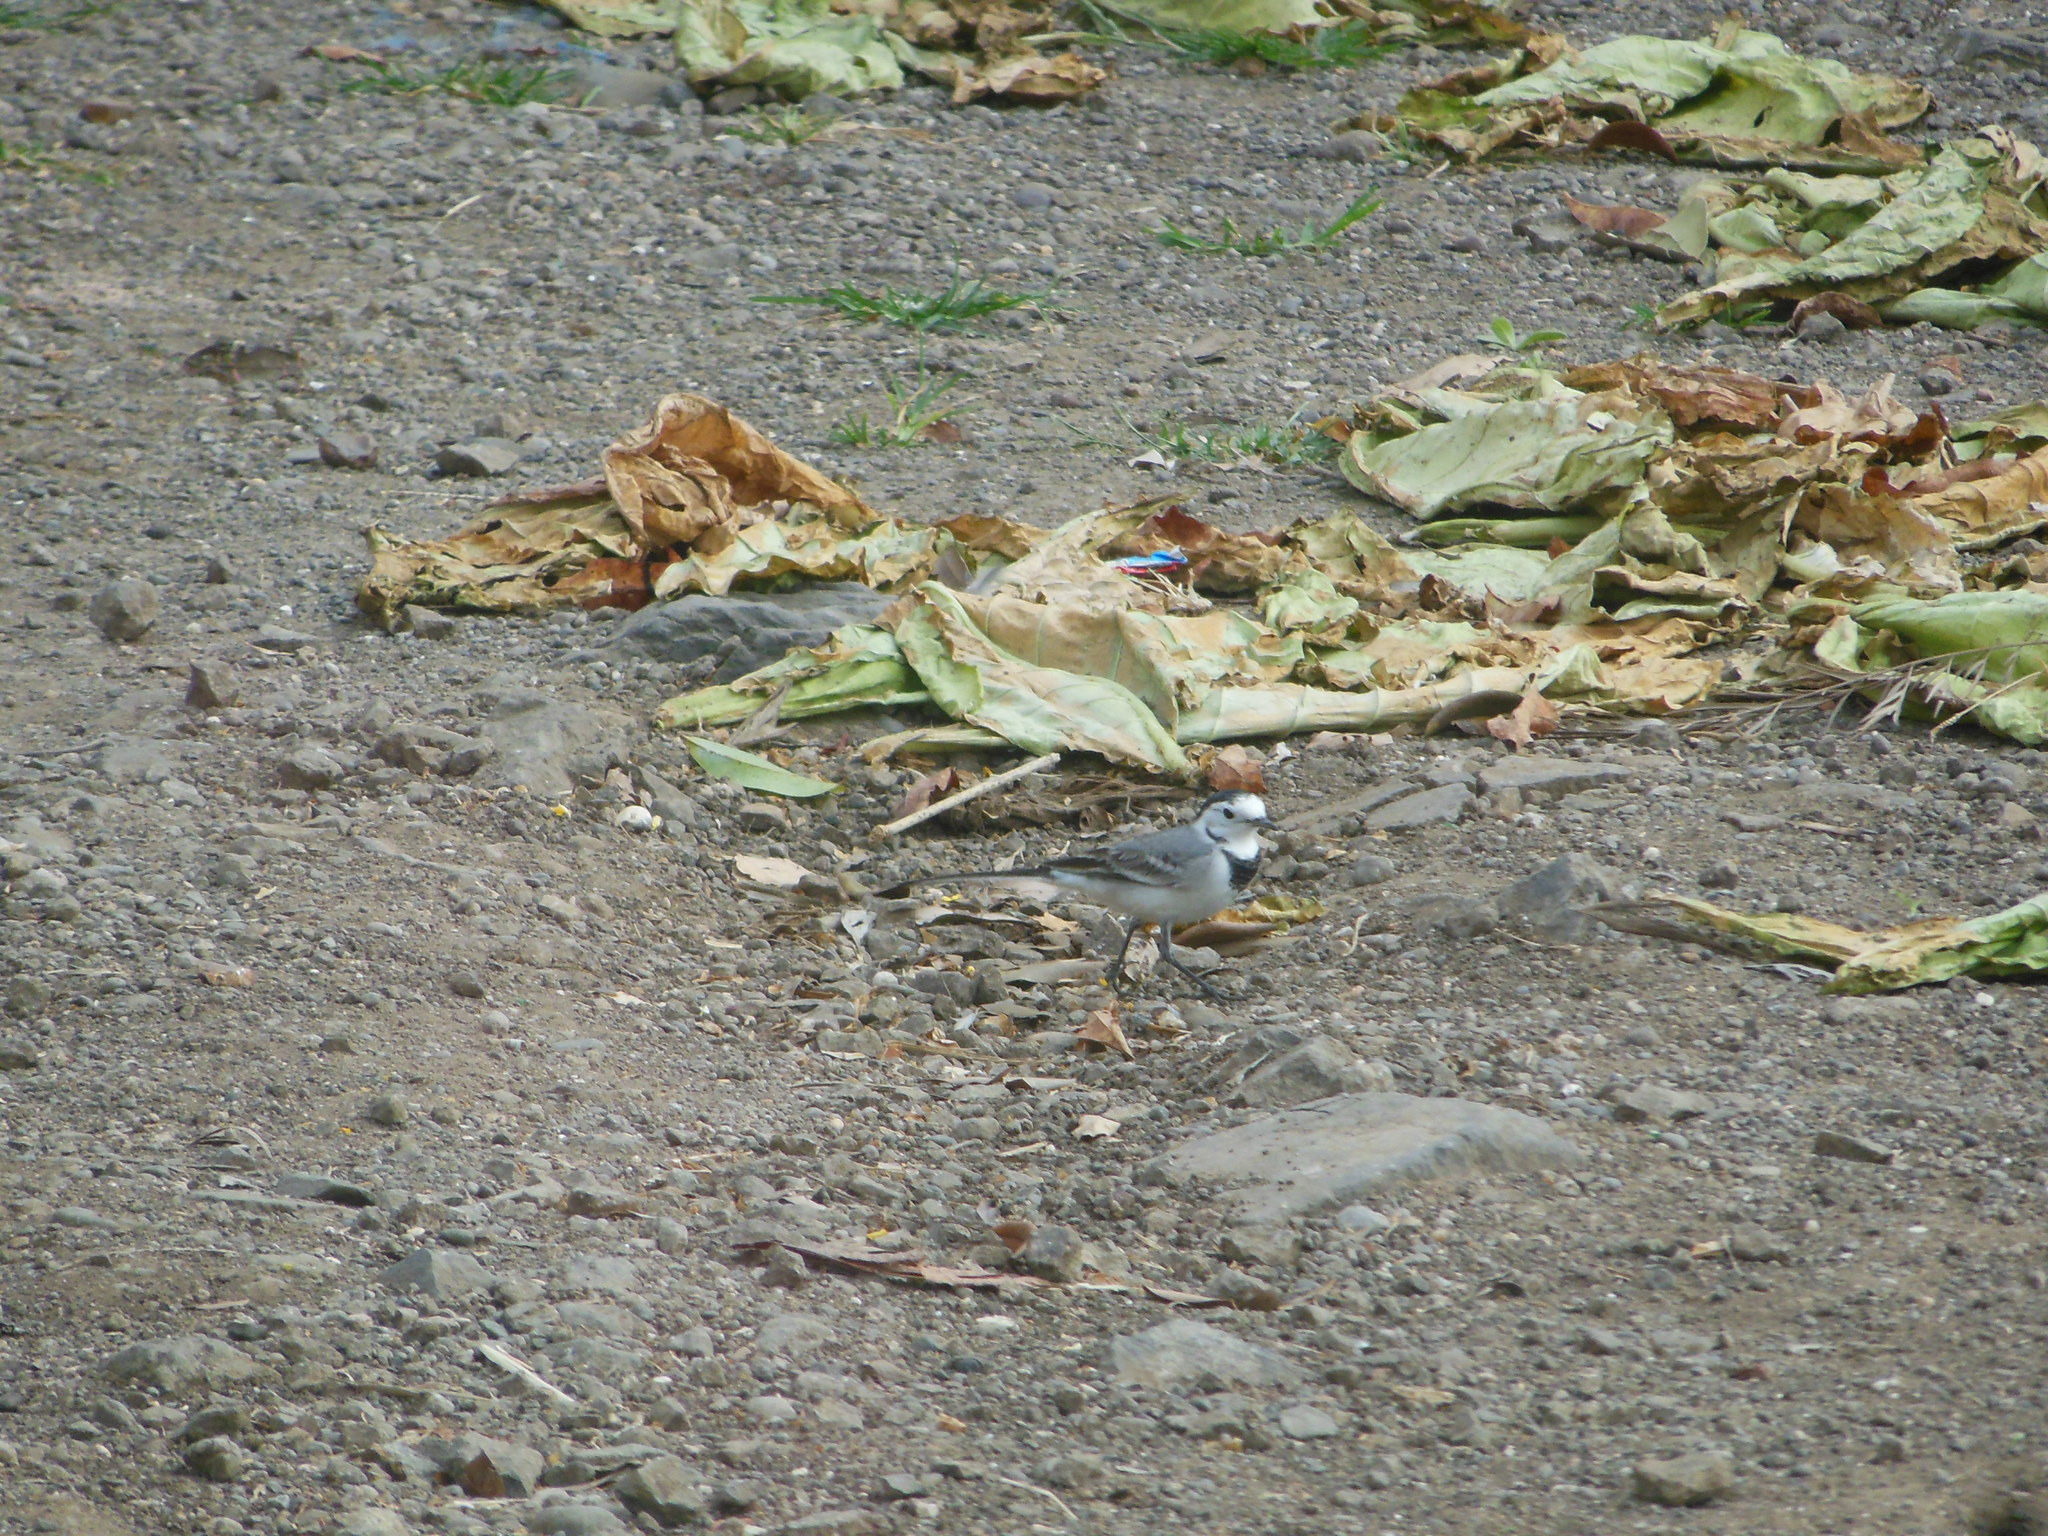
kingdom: Animalia
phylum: Chordata
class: Aves
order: Passeriformes
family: Motacillidae
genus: Motacilla
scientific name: Motacilla alba
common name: White wagtail
